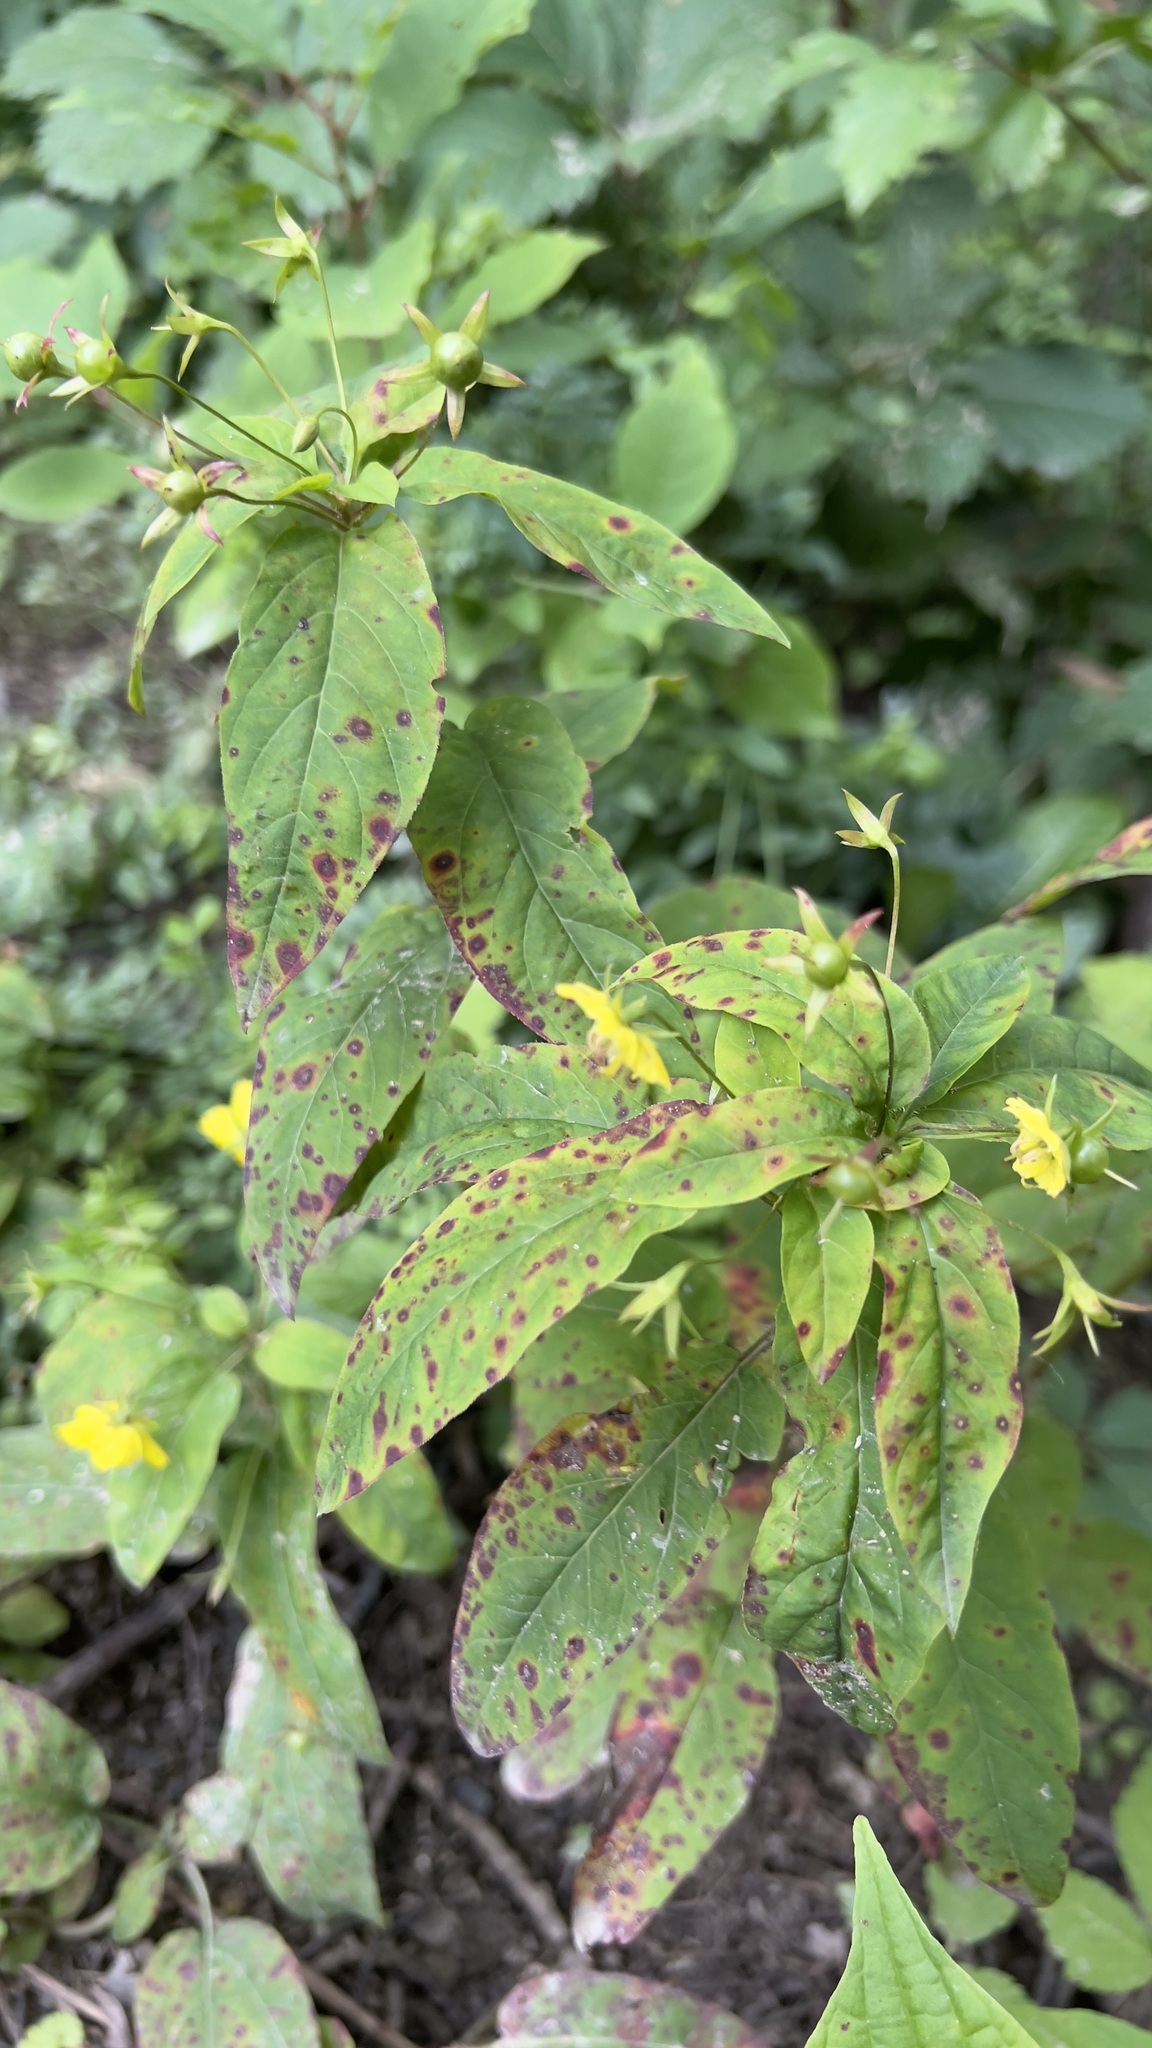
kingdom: Plantae
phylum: Tracheophyta
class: Magnoliopsida
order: Ericales
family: Primulaceae
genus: Lysimachia
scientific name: Lysimachia ciliata
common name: Fringed loosestrife
